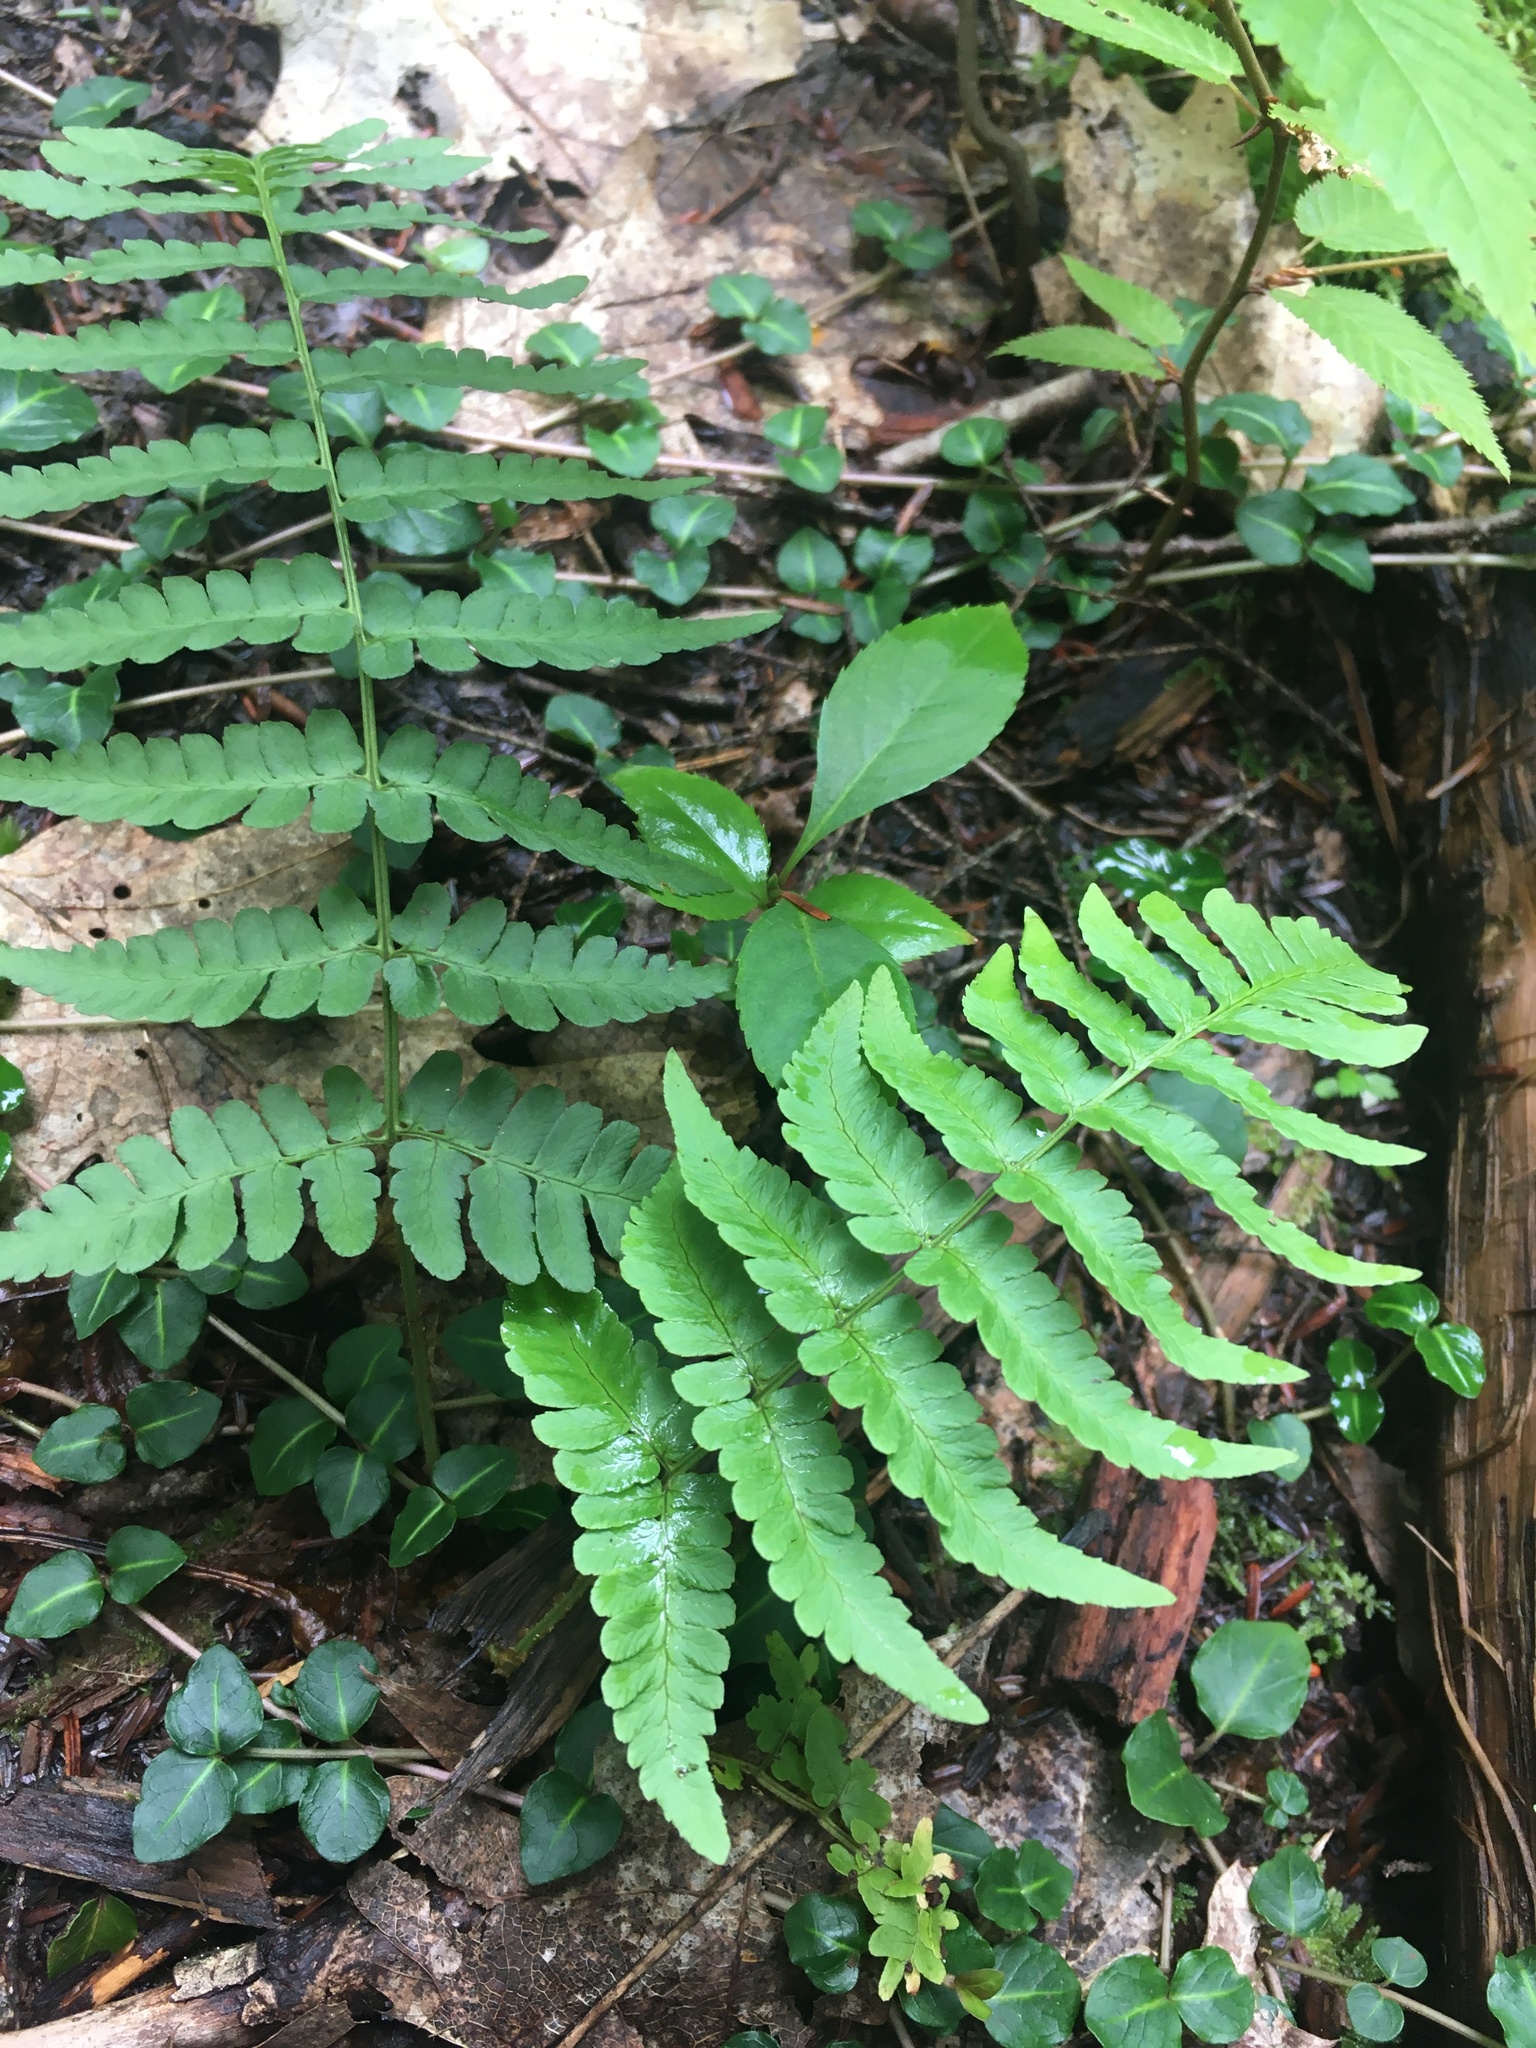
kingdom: Plantae
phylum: Tracheophyta
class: Polypodiopsida
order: Polypodiales
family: Dryopteridaceae
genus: Dryopteris
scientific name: Dryopteris marginalis
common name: Marginal wood fern
